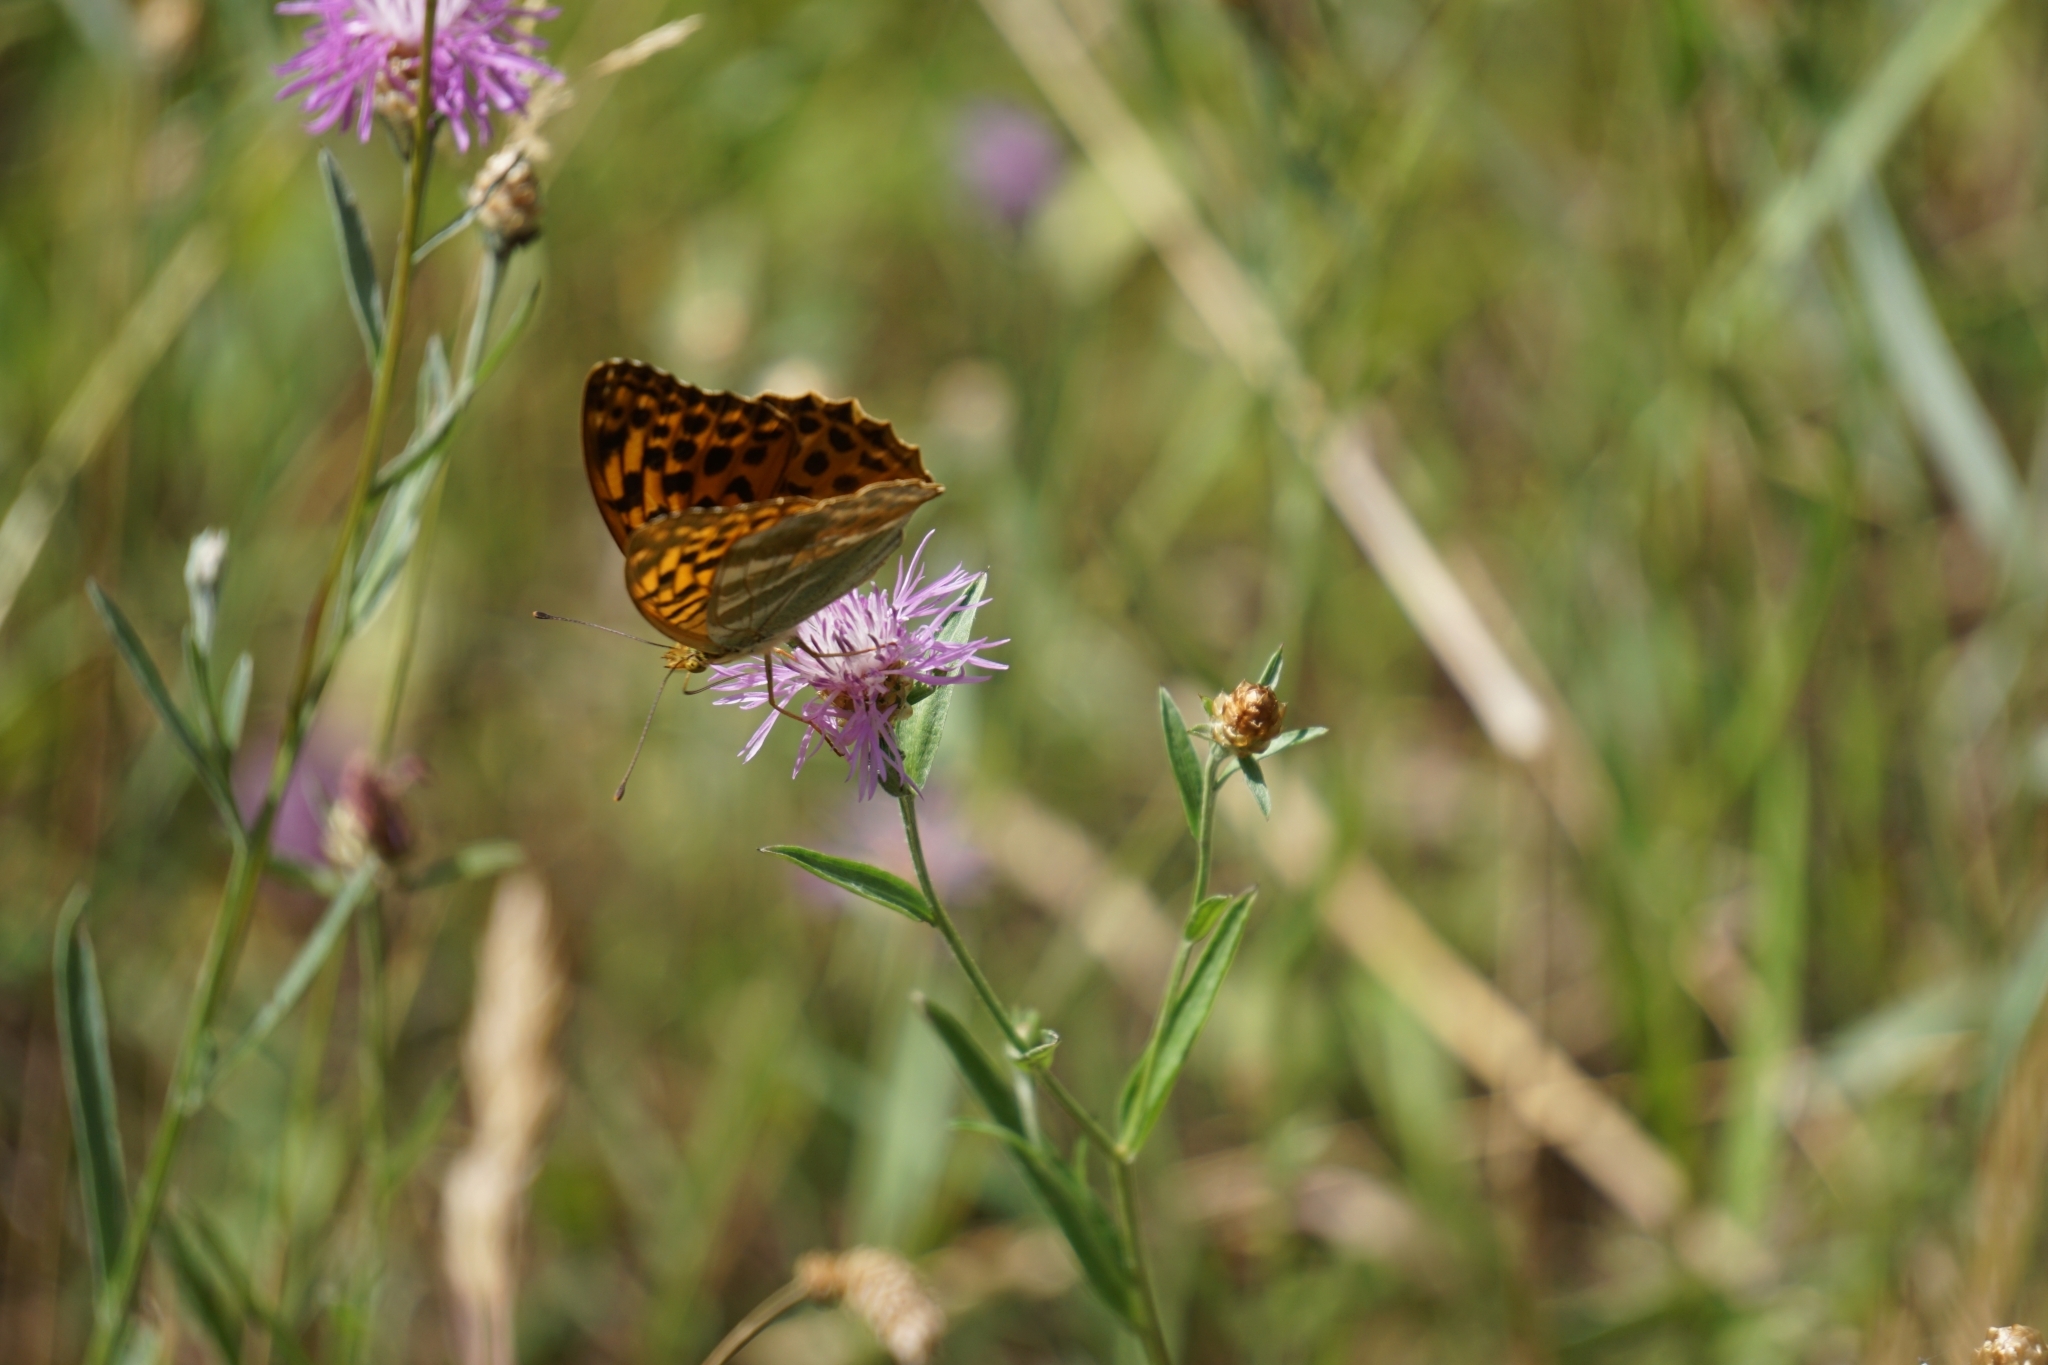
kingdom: Animalia
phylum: Arthropoda
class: Insecta
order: Lepidoptera
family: Nymphalidae
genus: Argynnis
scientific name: Argynnis paphia
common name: Silver-washed fritillary
